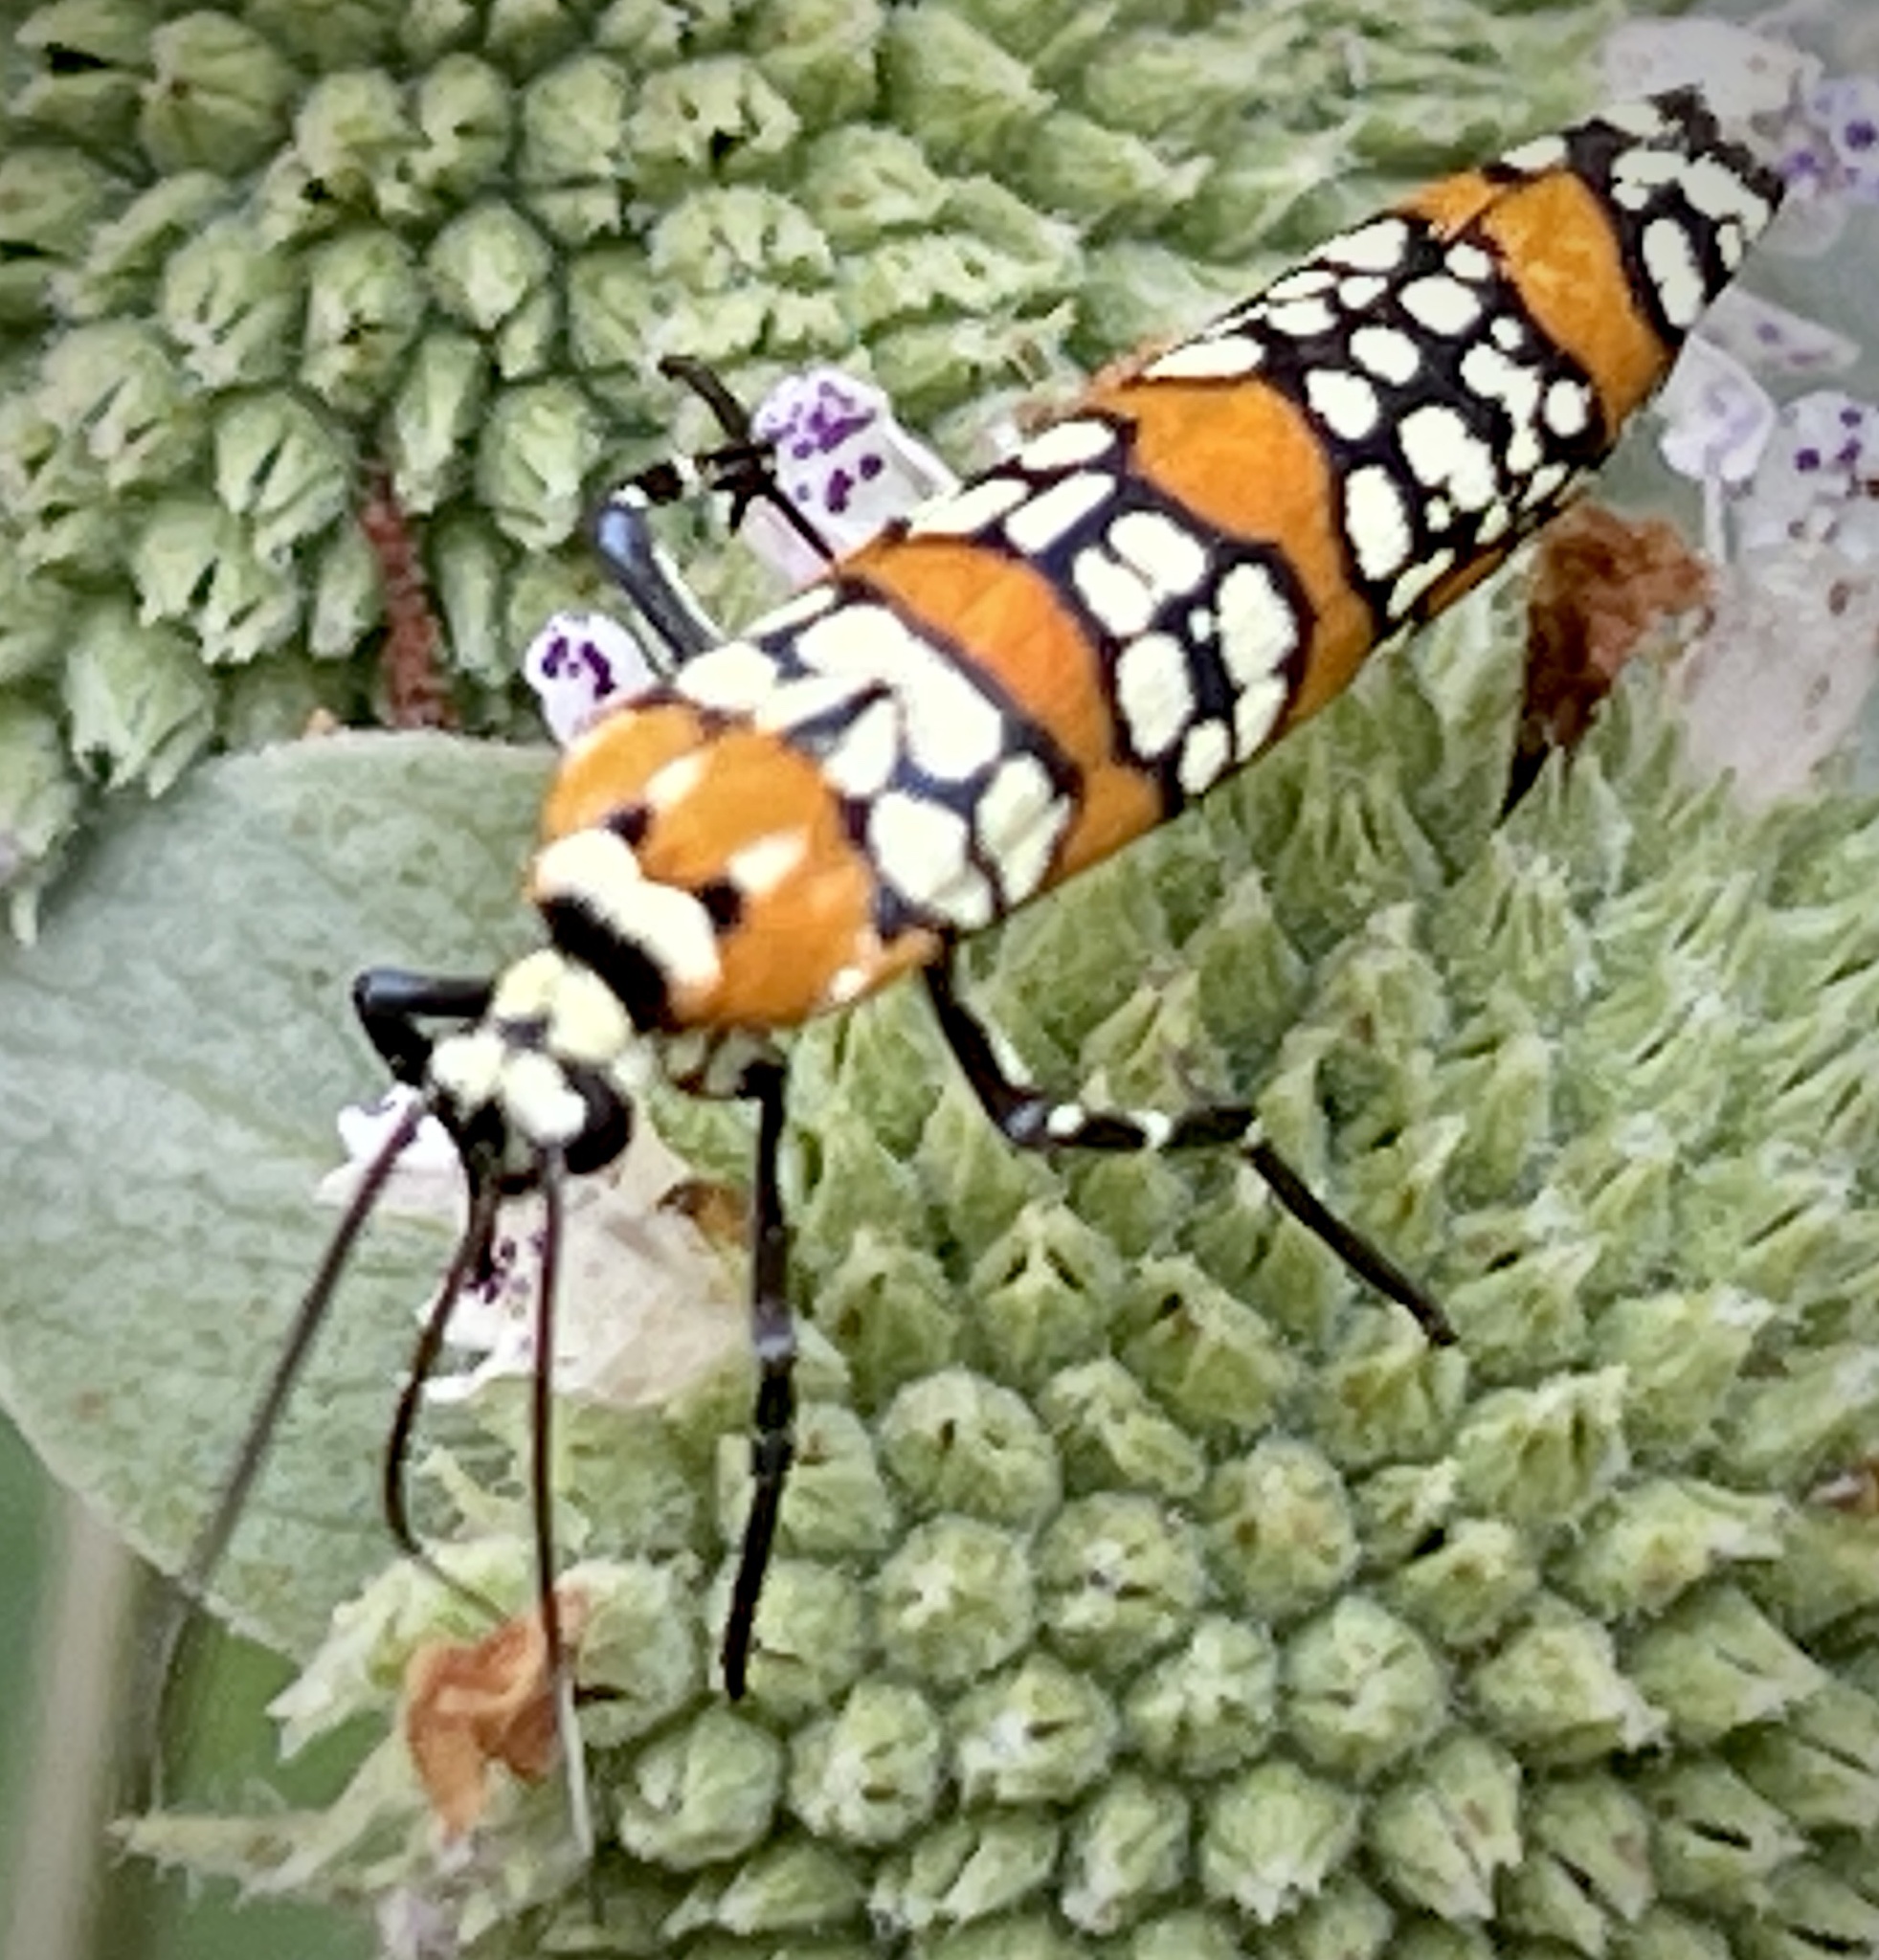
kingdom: Animalia
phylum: Arthropoda
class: Insecta
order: Lepidoptera
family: Attevidae
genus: Atteva
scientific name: Atteva punctella
